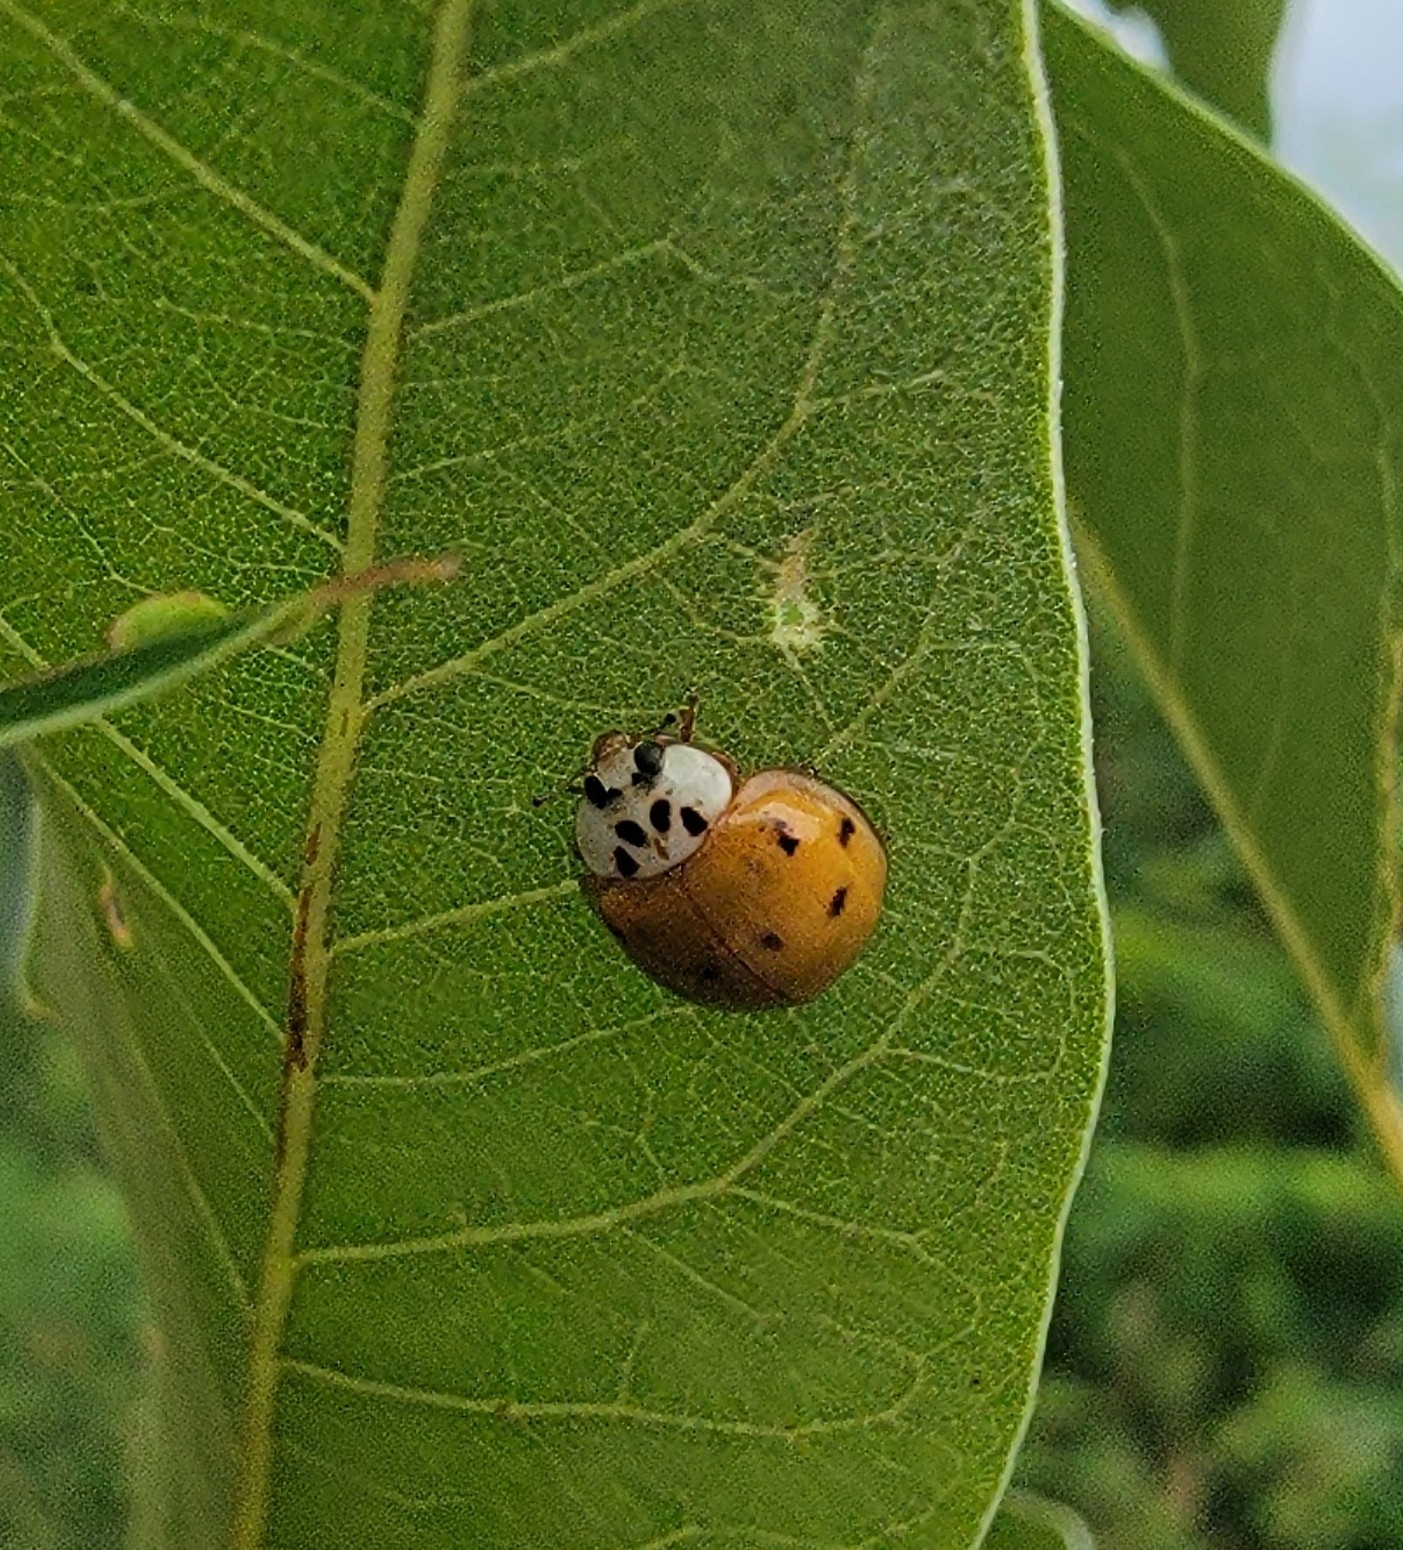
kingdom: Animalia
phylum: Arthropoda
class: Insecta
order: Coleoptera
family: Coccinellidae
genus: Harmonia
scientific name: Harmonia axyridis
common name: Harlequin ladybird
